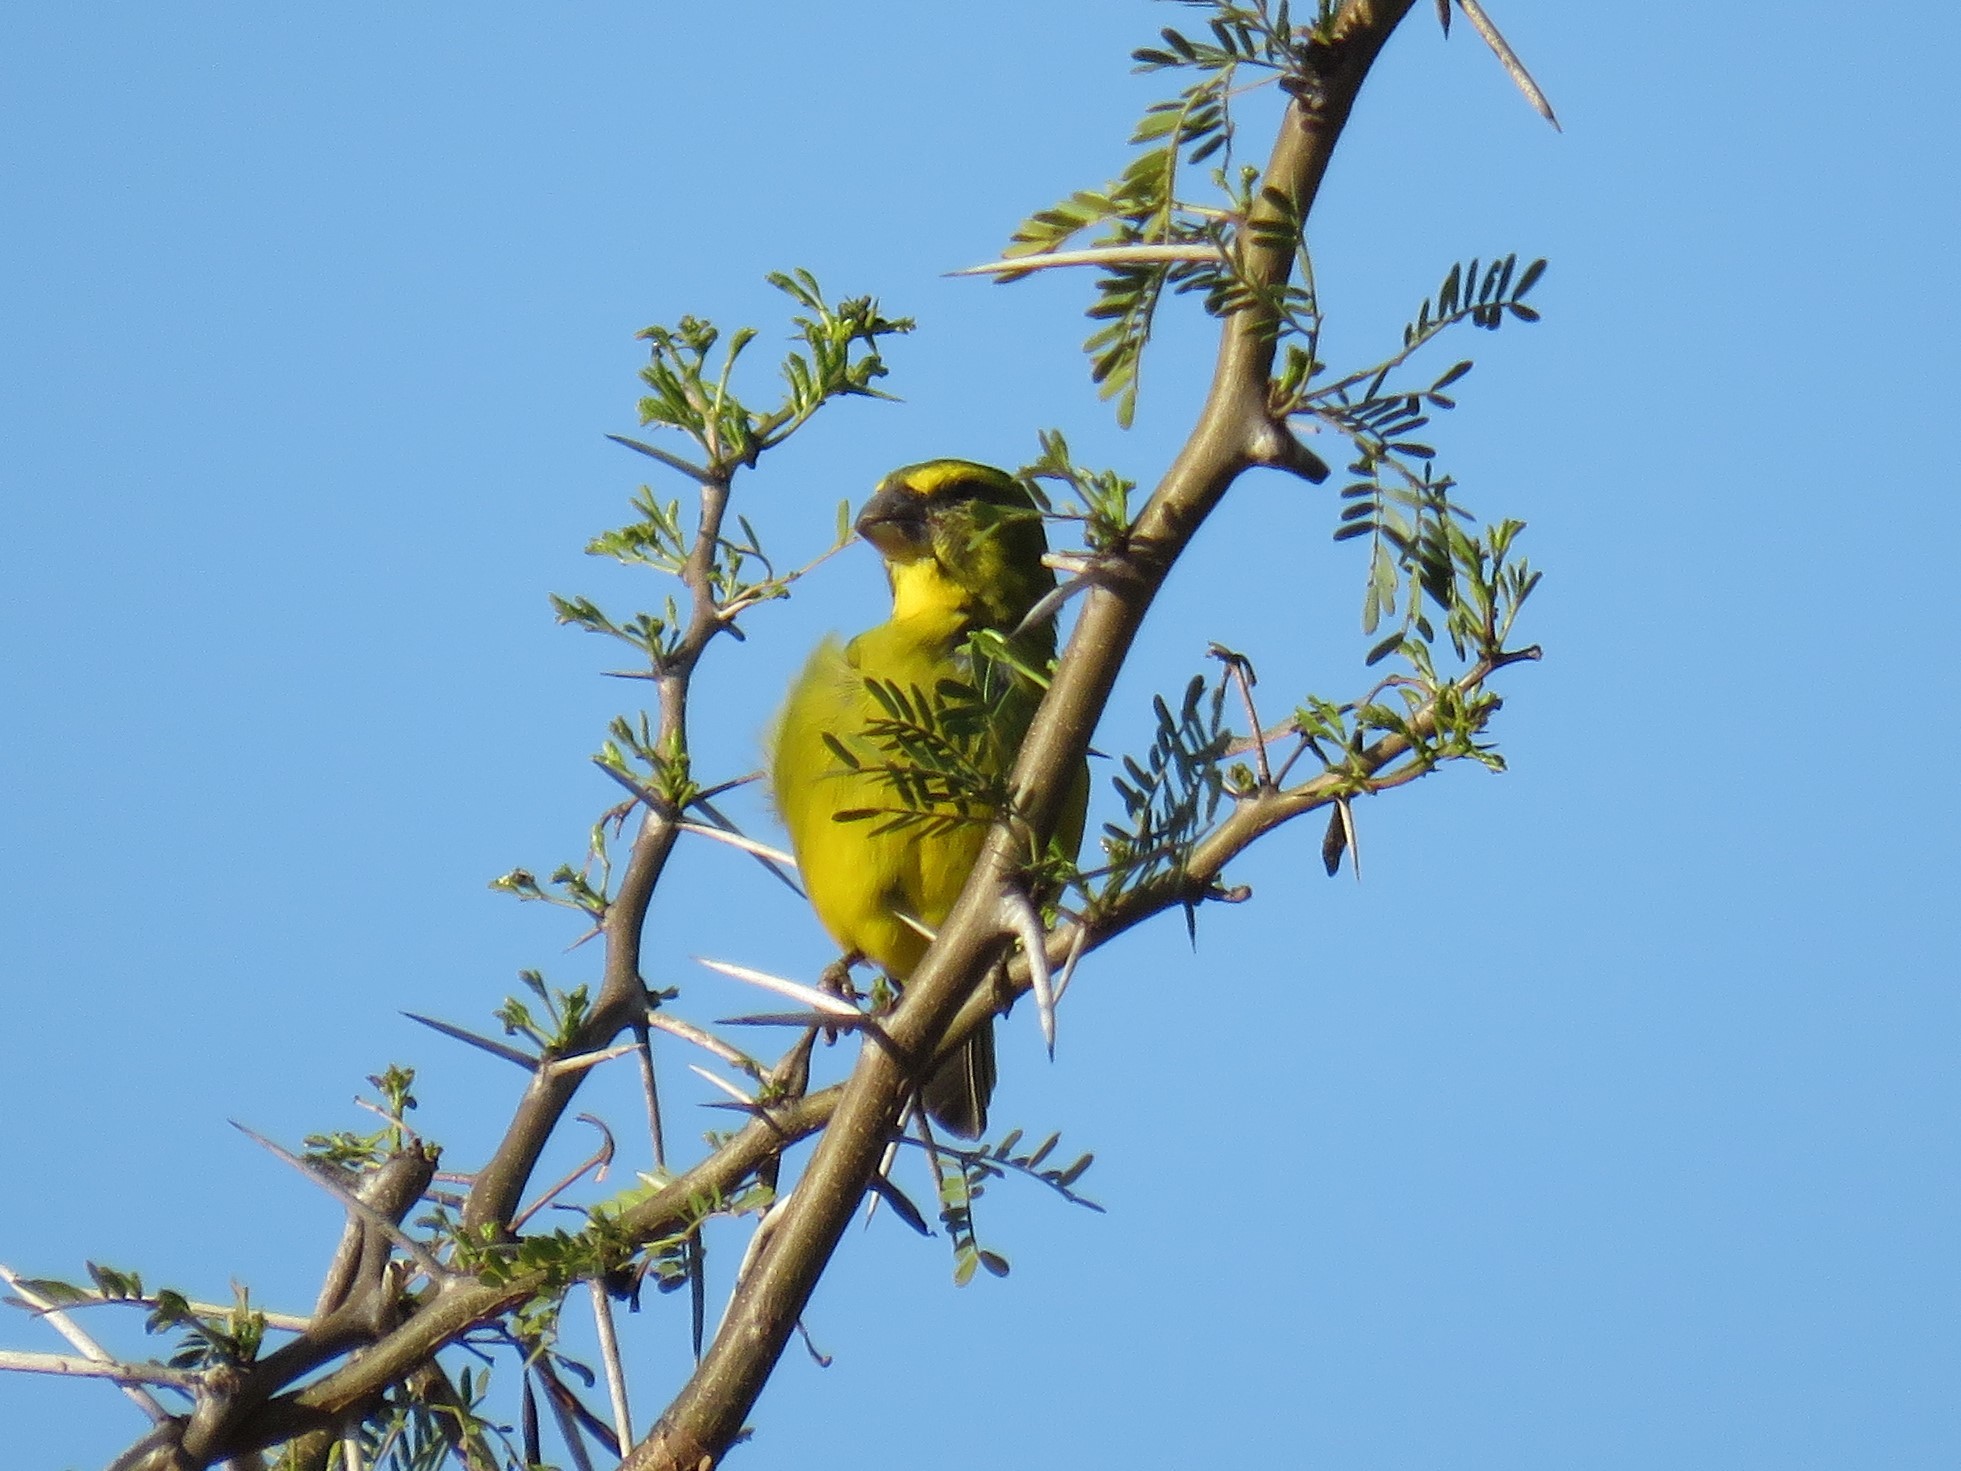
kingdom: Animalia
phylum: Chordata
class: Aves
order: Passeriformes
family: Fringillidae
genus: Crithagra
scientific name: Crithagra sulphurata
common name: Brimstone canary
